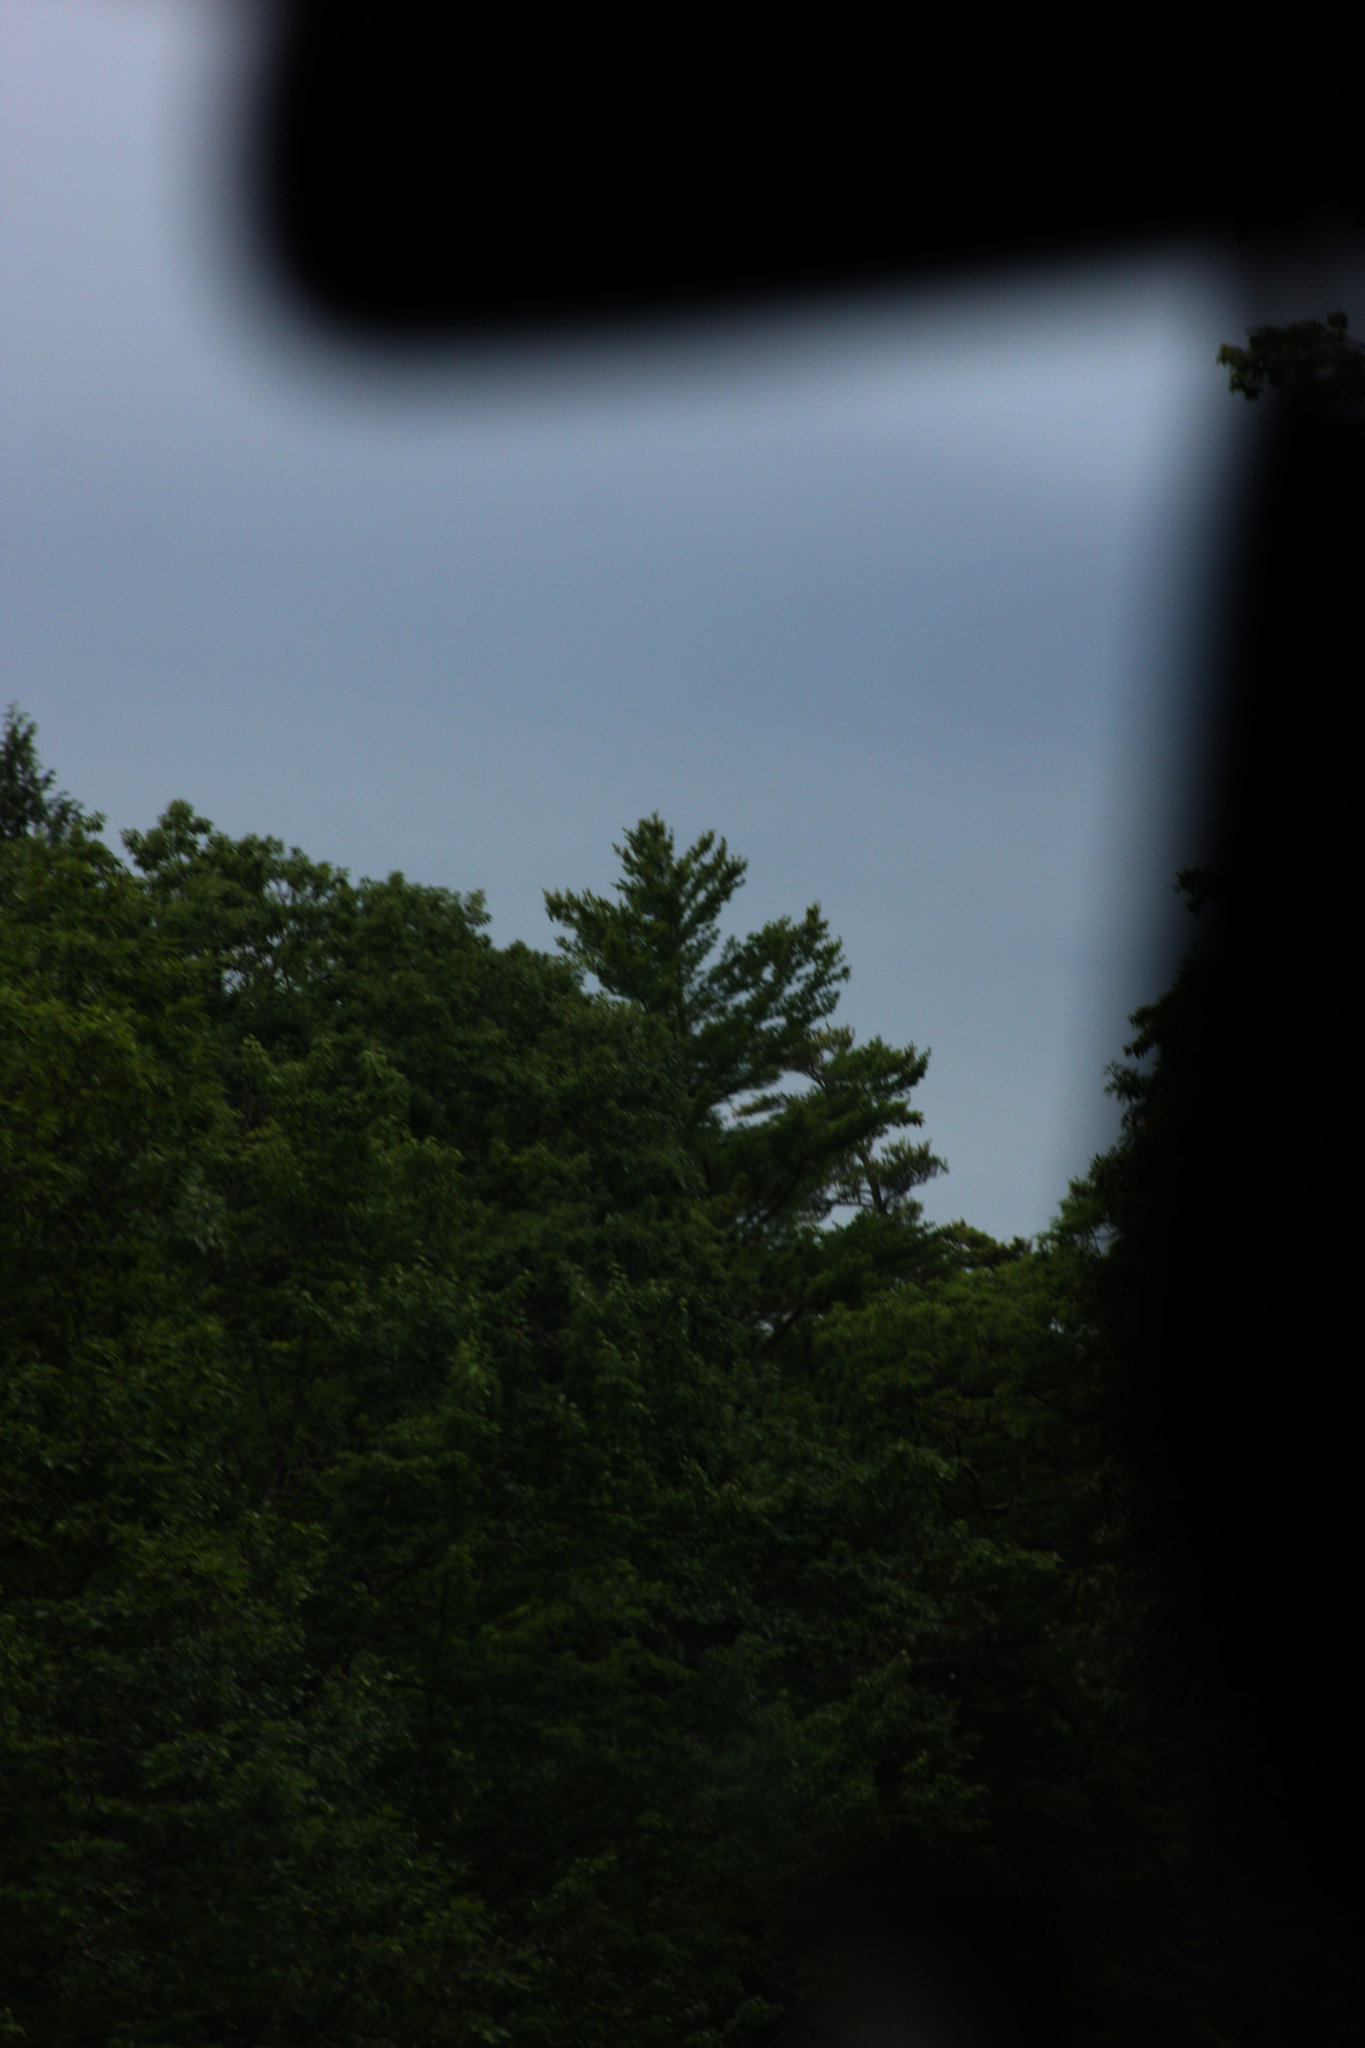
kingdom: Plantae
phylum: Tracheophyta
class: Pinopsida
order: Pinales
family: Pinaceae
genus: Pinus
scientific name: Pinus strobus
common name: Weymouth pine
